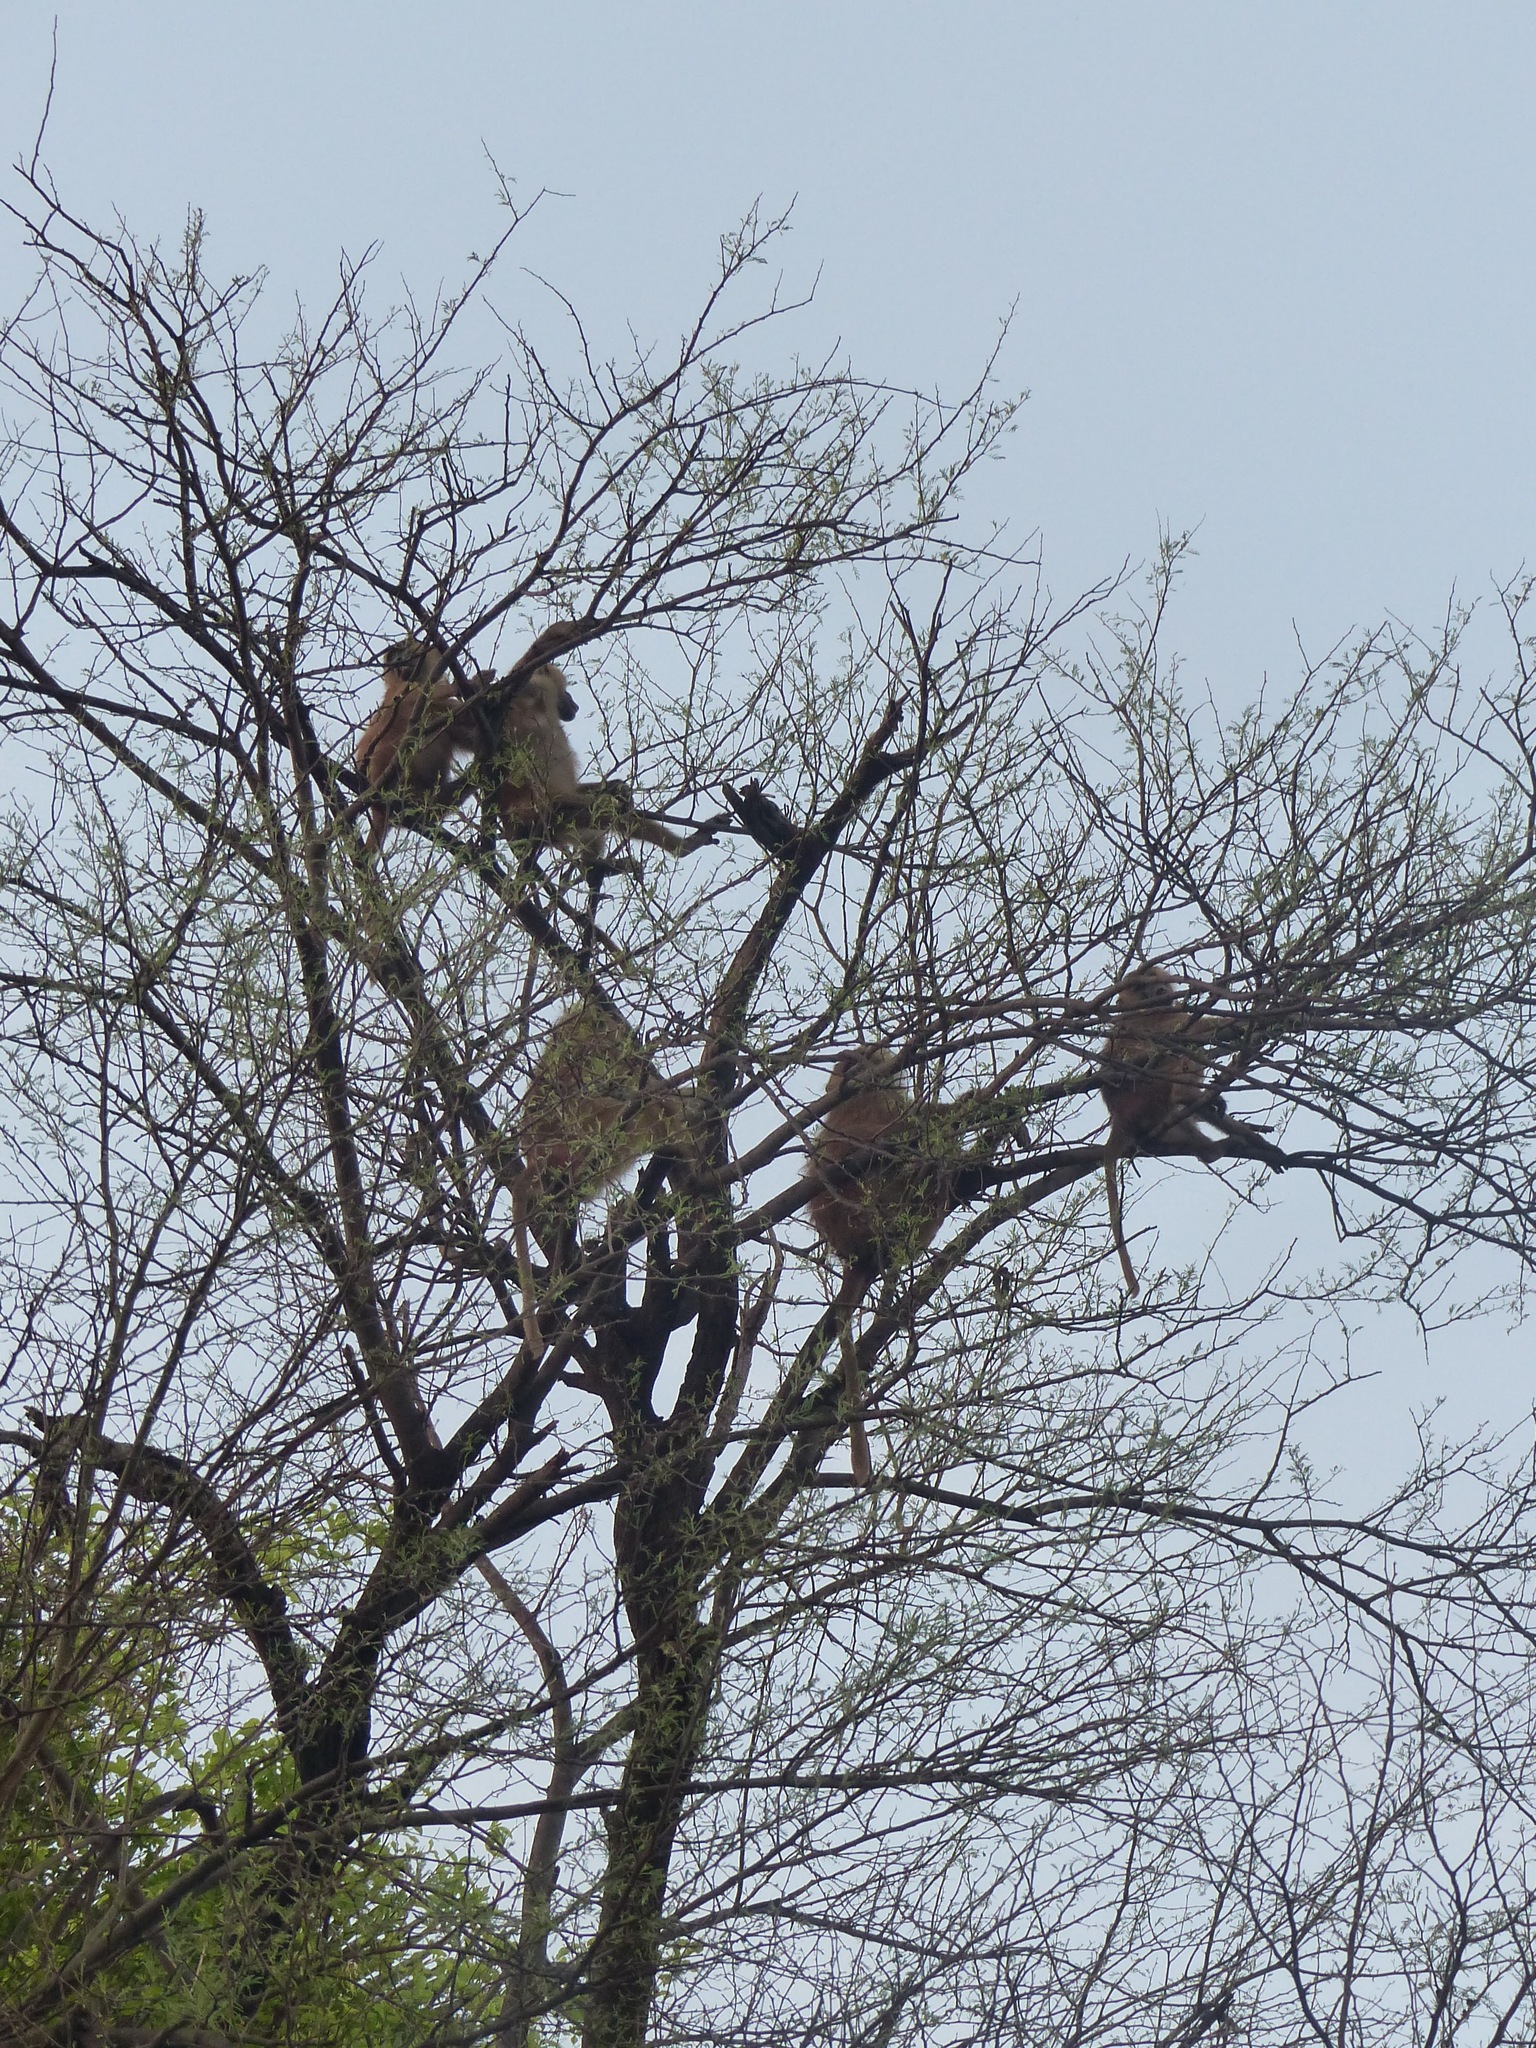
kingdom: Animalia
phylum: Chordata
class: Mammalia
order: Primates
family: Cercopithecidae
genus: Papio
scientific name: Papio papio
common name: Guinea baboon
